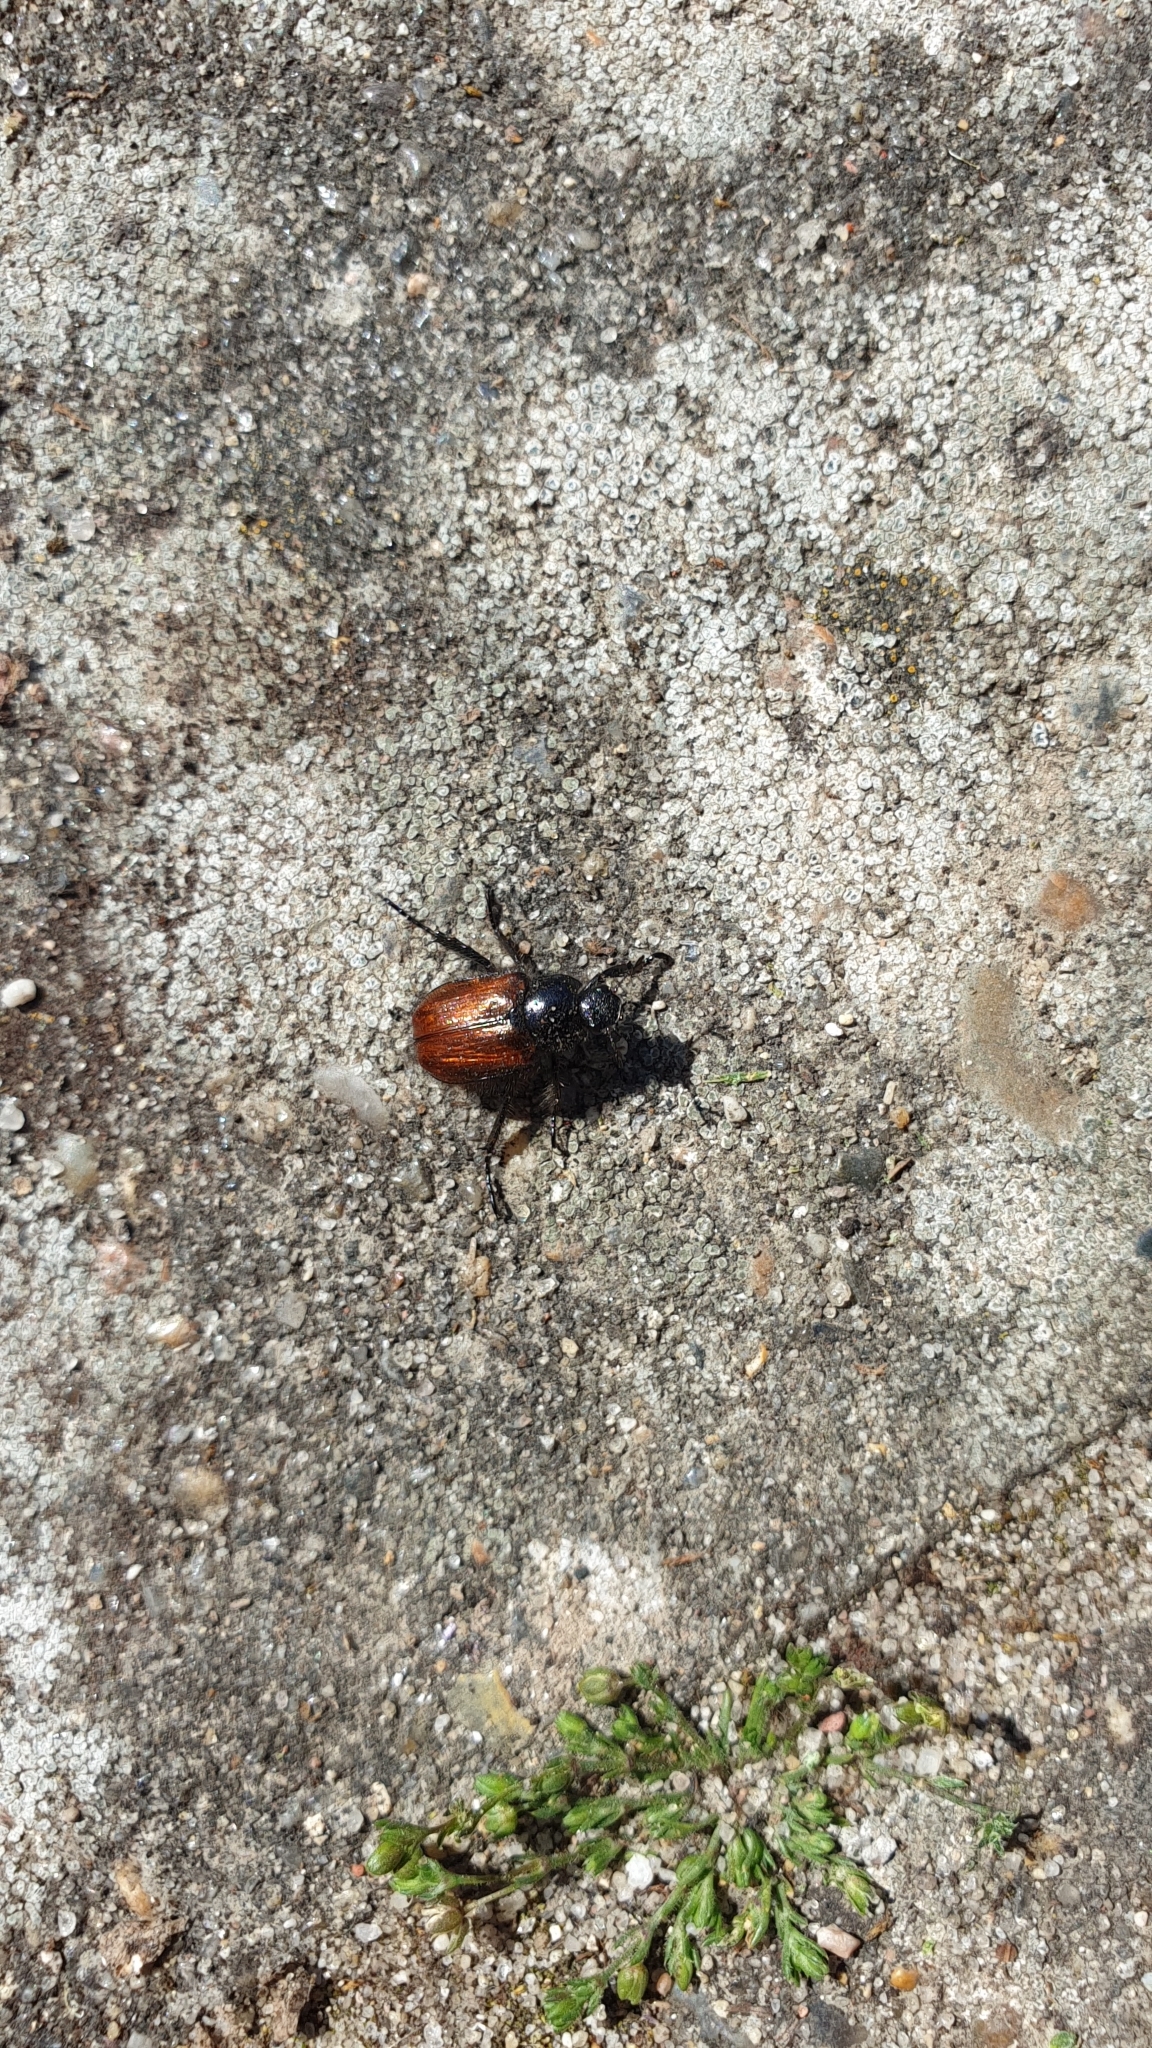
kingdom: Animalia
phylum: Arthropoda
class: Insecta
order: Coleoptera
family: Scarabaeidae
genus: Phyllopertha
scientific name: Phyllopertha horticola
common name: Garden chafer
